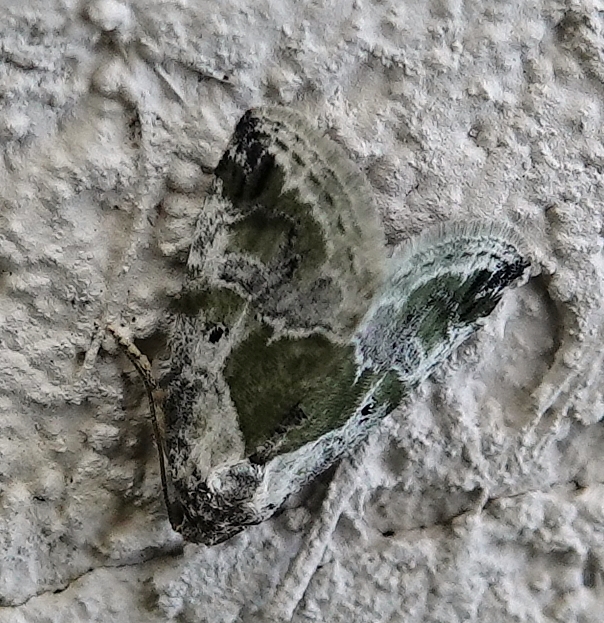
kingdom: Animalia
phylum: Arthropoda
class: Insecta
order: Lepidoptera
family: Noctuidae
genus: Maliattha
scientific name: Maliattha synochitis
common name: Black-dotted glyph
